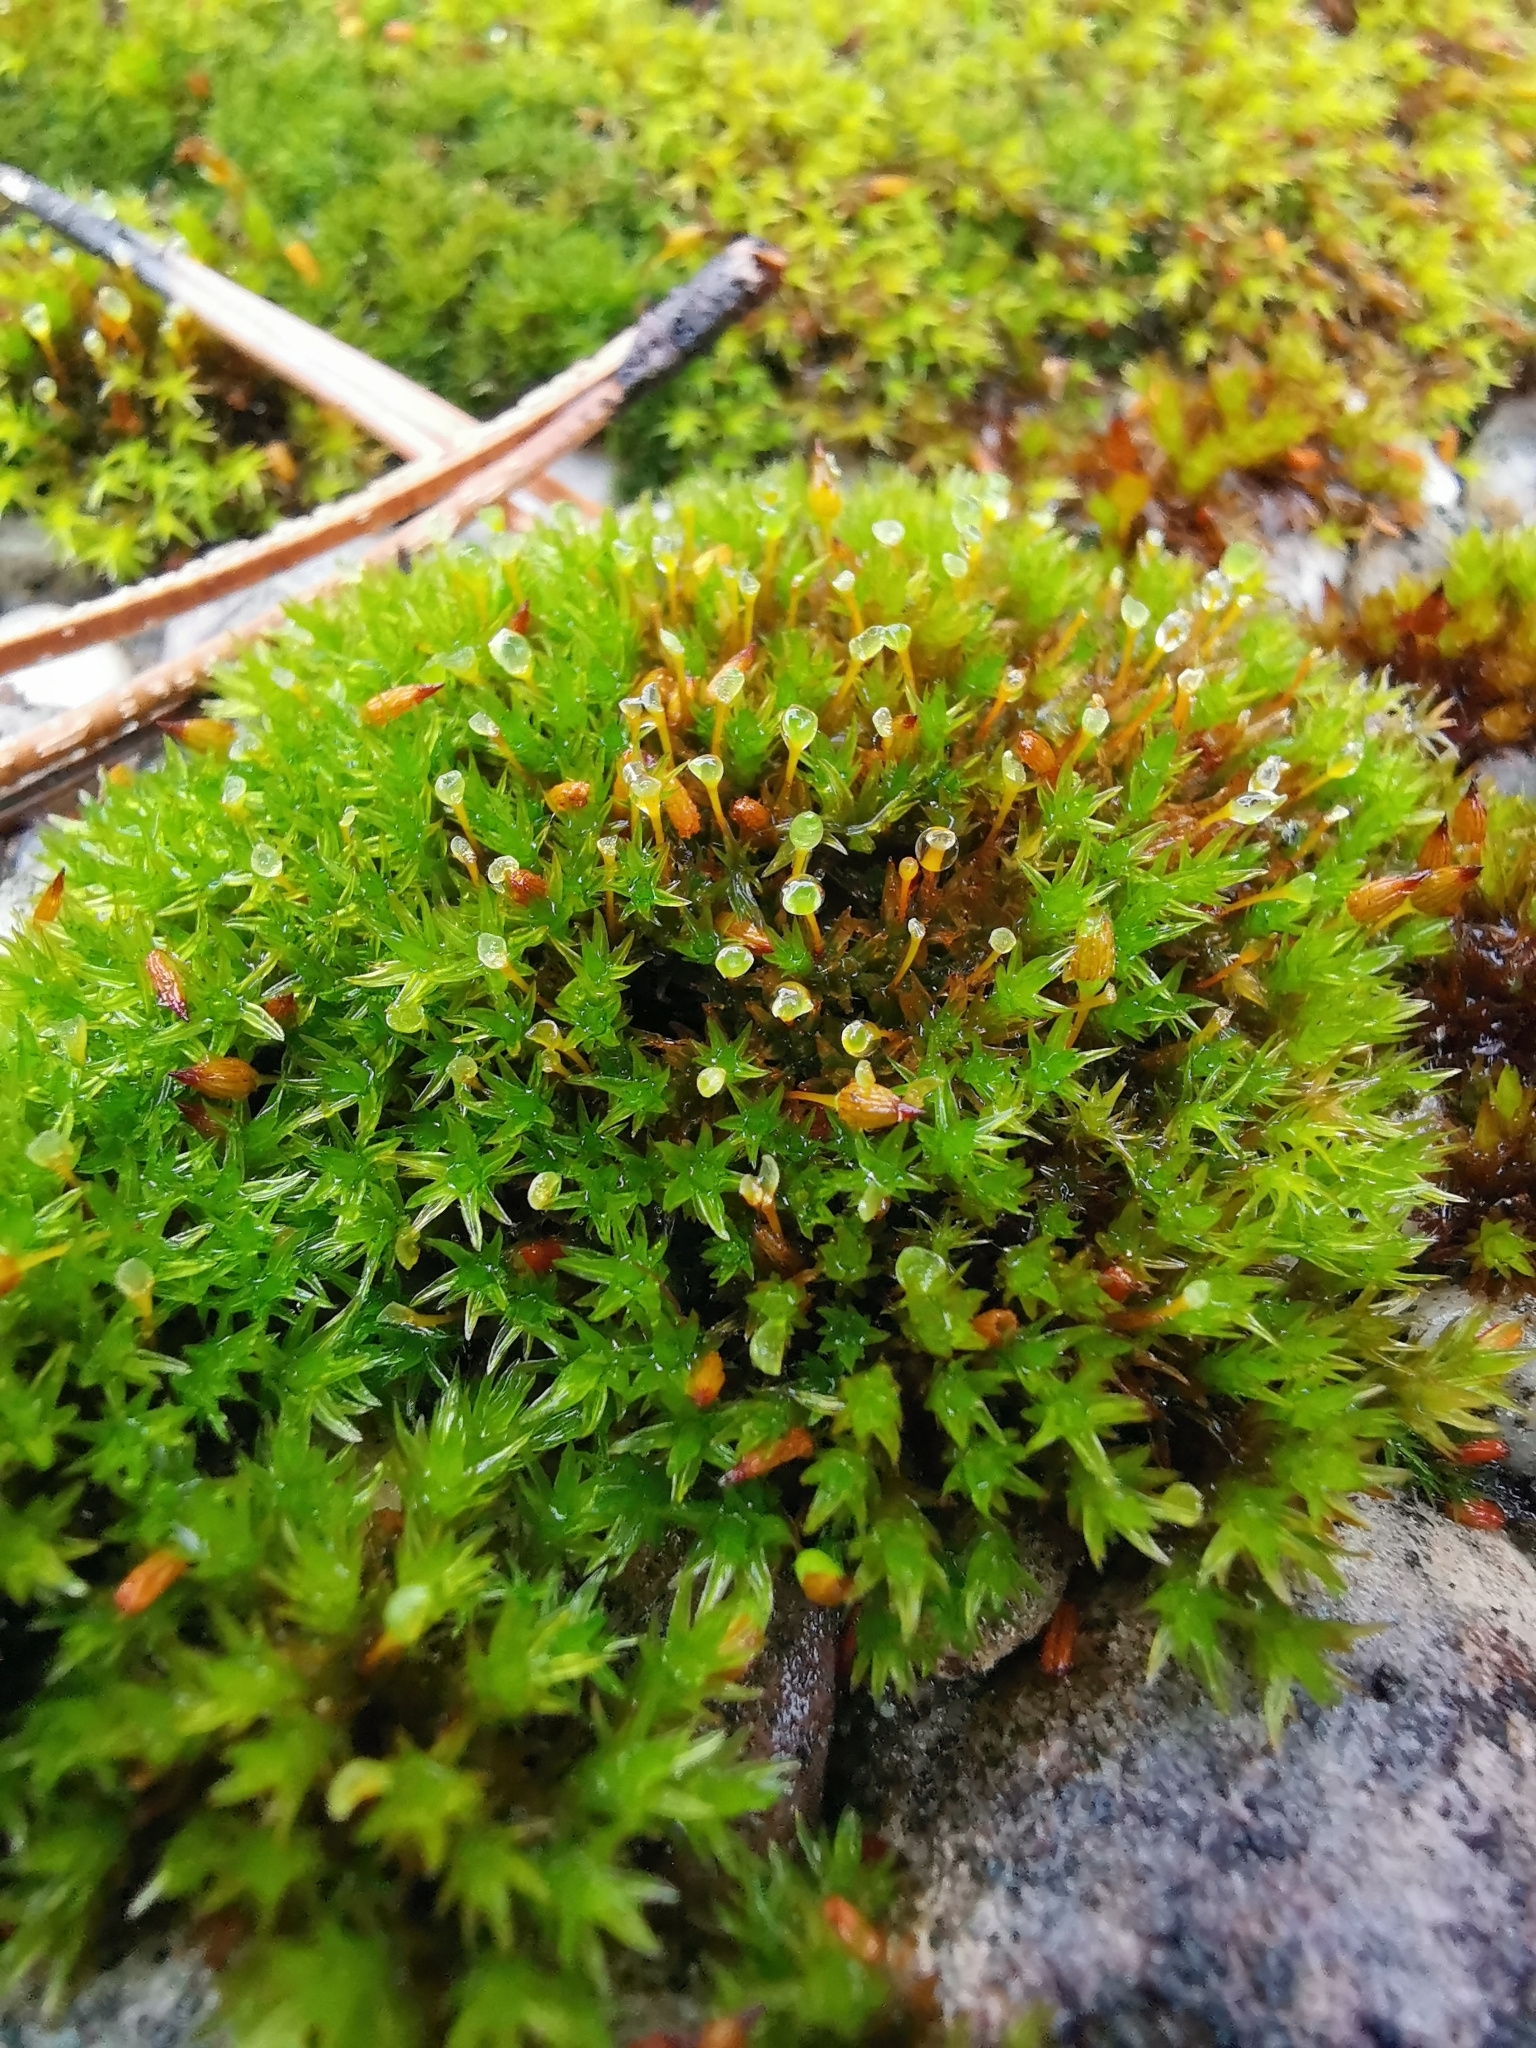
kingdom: Plantae
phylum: Bryophyta
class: Bryopsida
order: Orthotrichales
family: Orthotrichaceae
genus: Orthotrichum
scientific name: Orthotrichum anomalum
